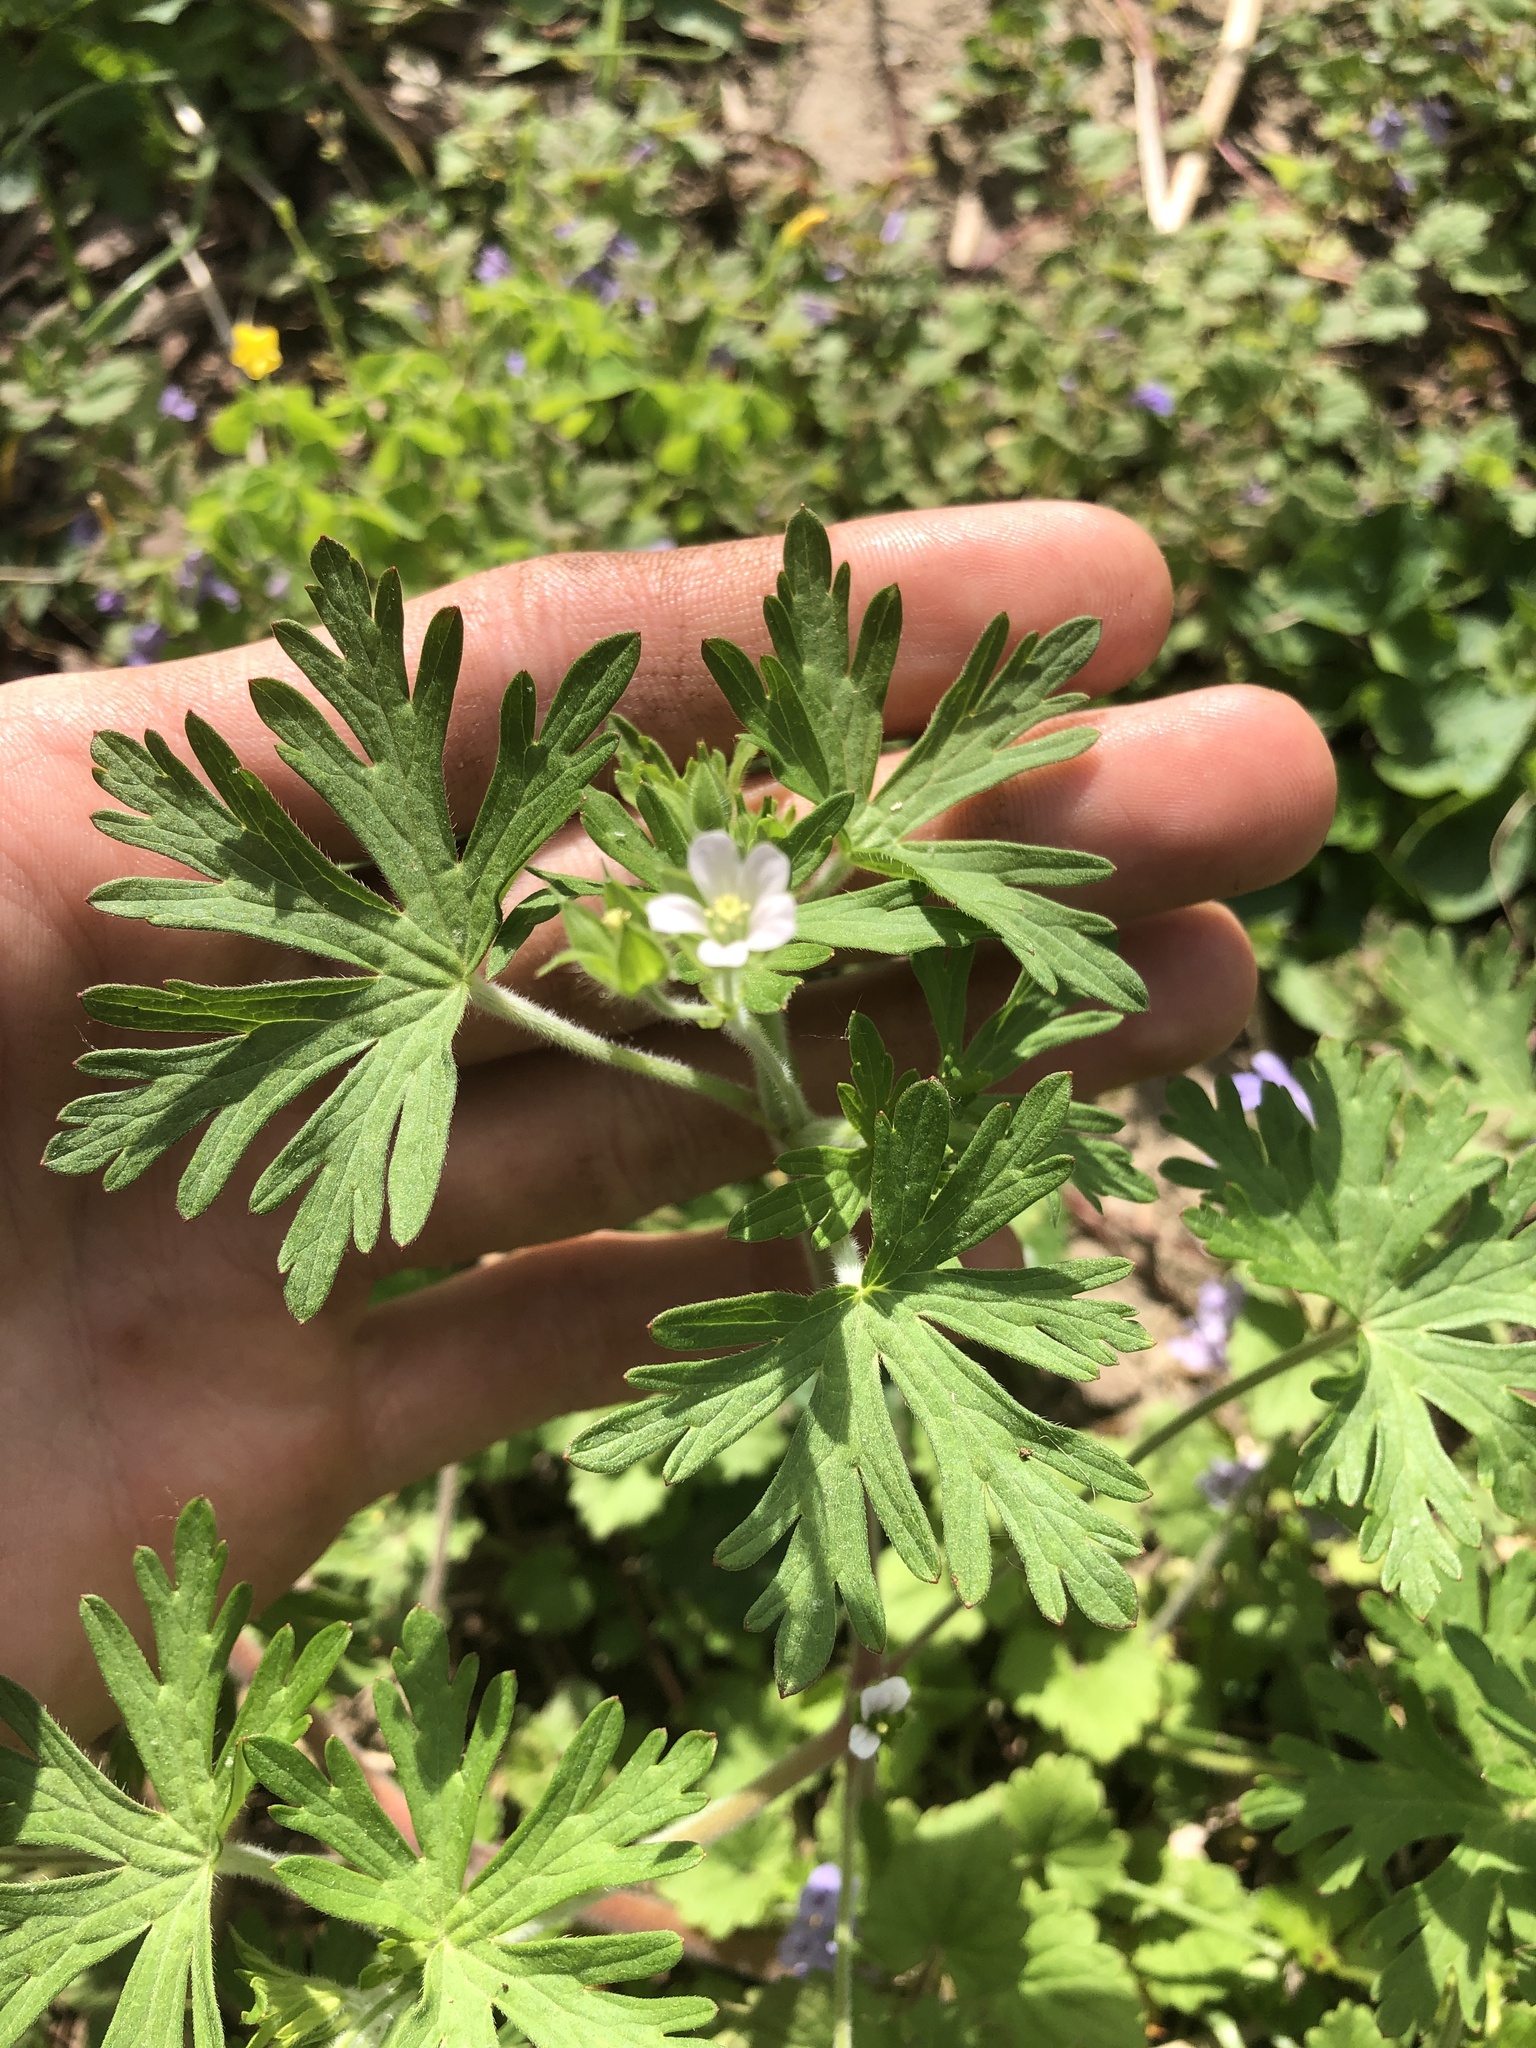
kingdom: Plantae
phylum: Tracheophyta
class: Magnoliopsida
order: Geraniales
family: Geraniaceae
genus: Geranium
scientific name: Geranium carolinianum
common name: Carolina crane's-bill
